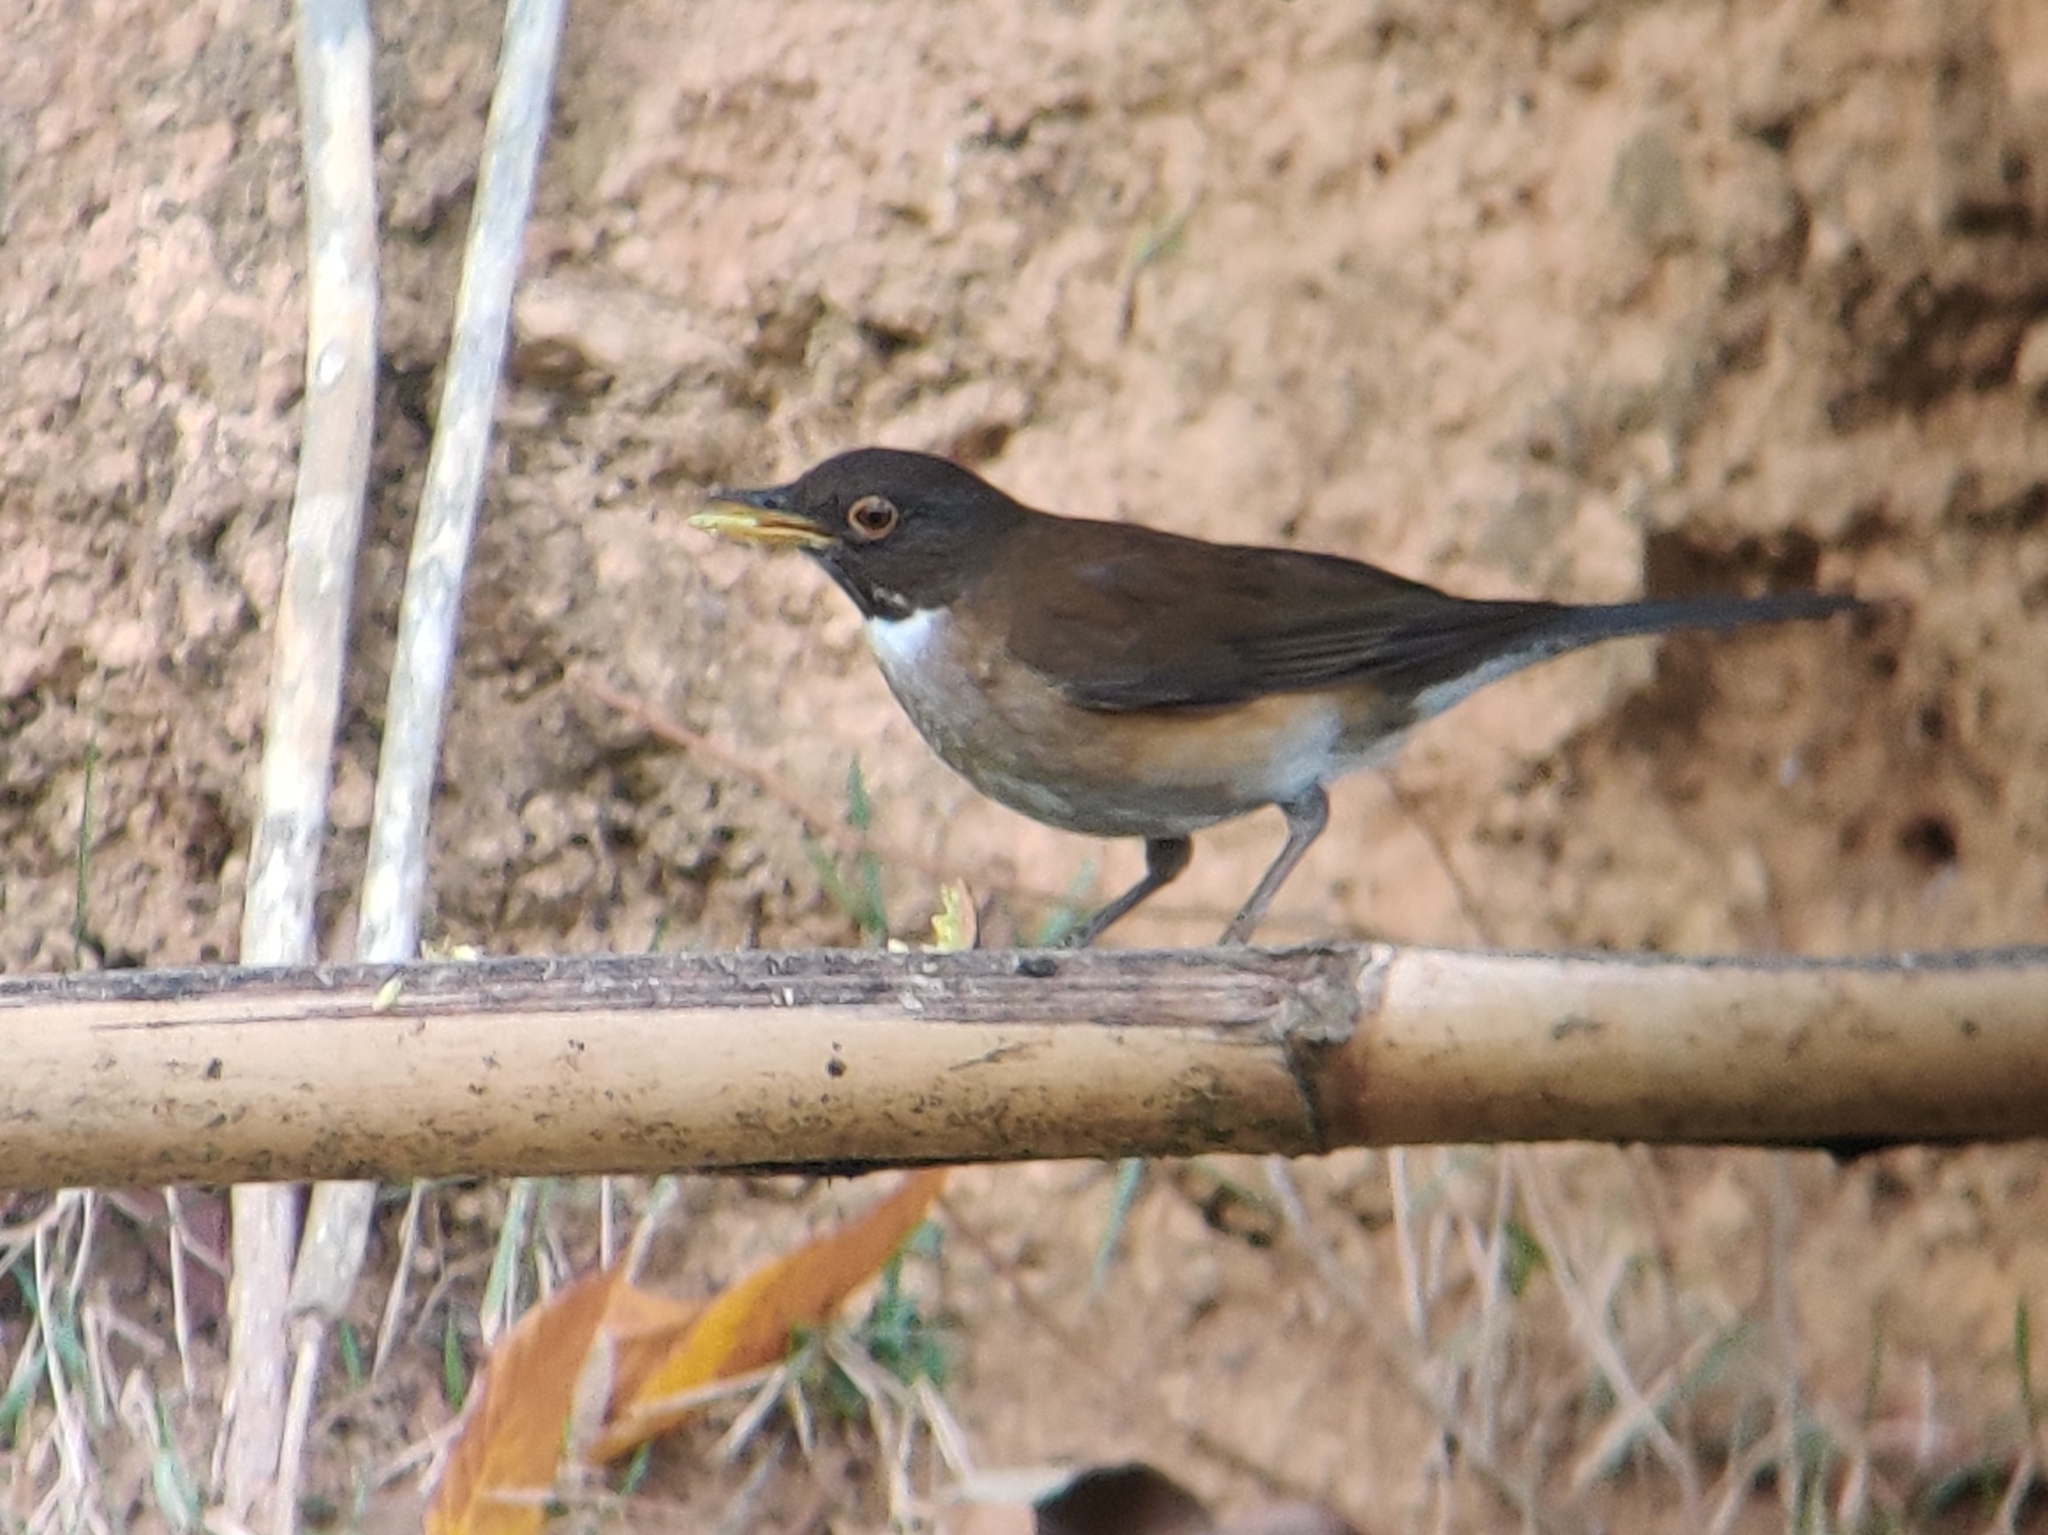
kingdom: Animalia
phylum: Chordata
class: Aves
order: Passeriformes
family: Turdidae
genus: Turdus
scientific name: Turdus albicollis
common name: White-necked thrush
